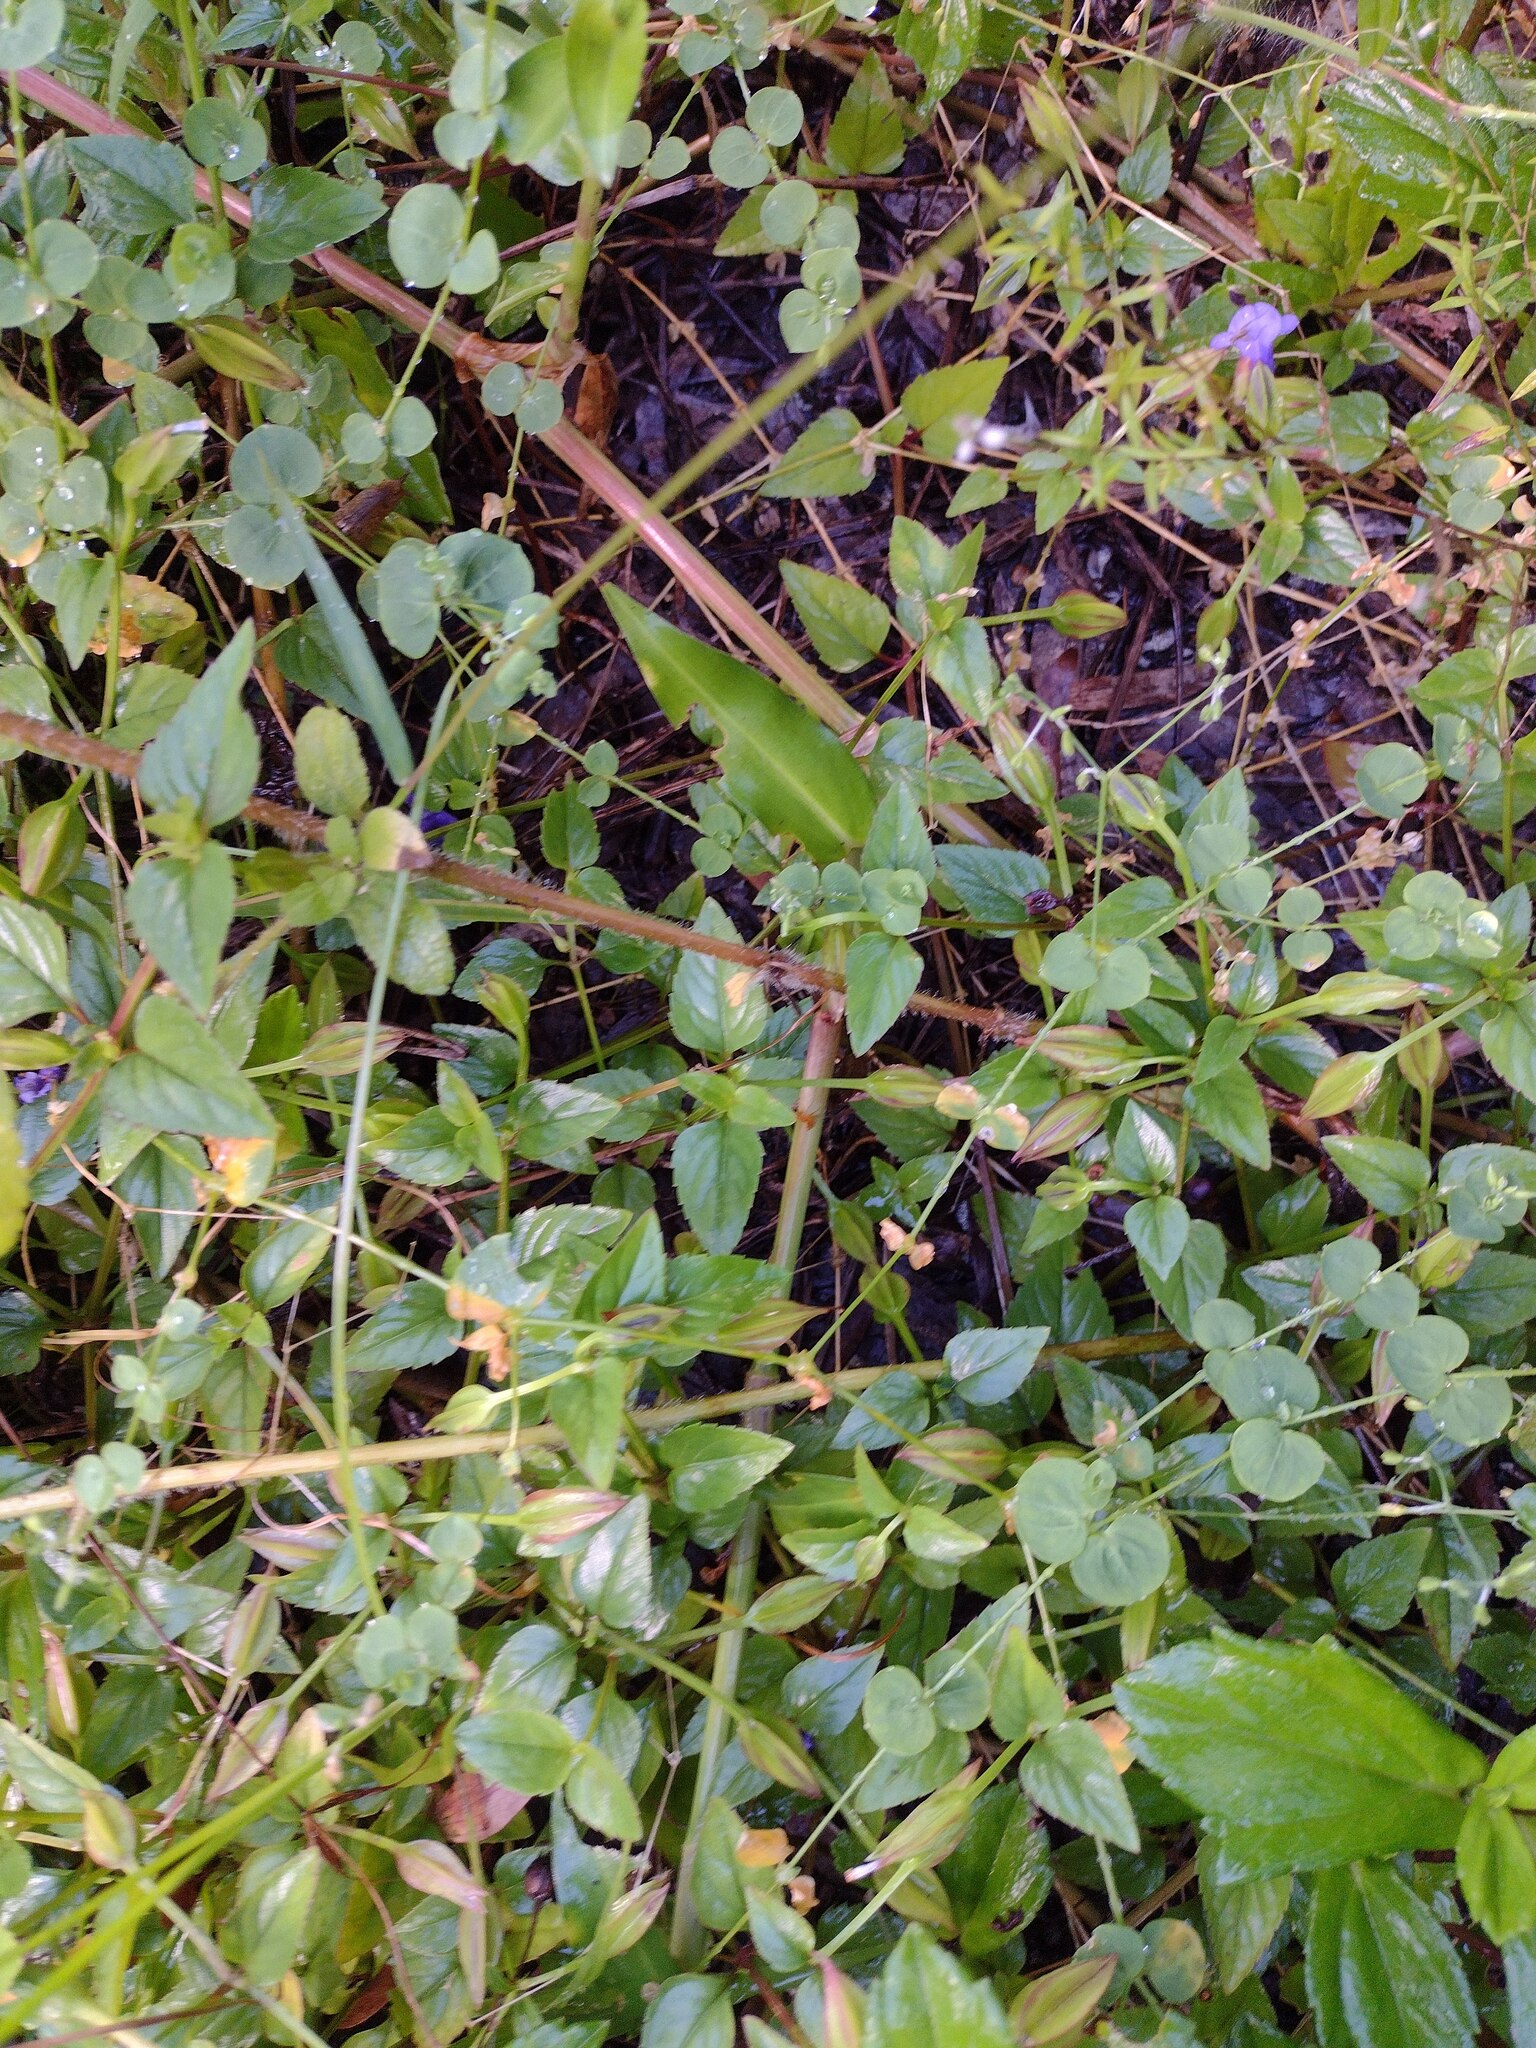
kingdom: Plantae
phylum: Tracheophyta
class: Magnoliopsida
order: Lamiales
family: Linderniaceae
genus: Torenia
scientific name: Torenia asiatica
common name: Wishbone flower
